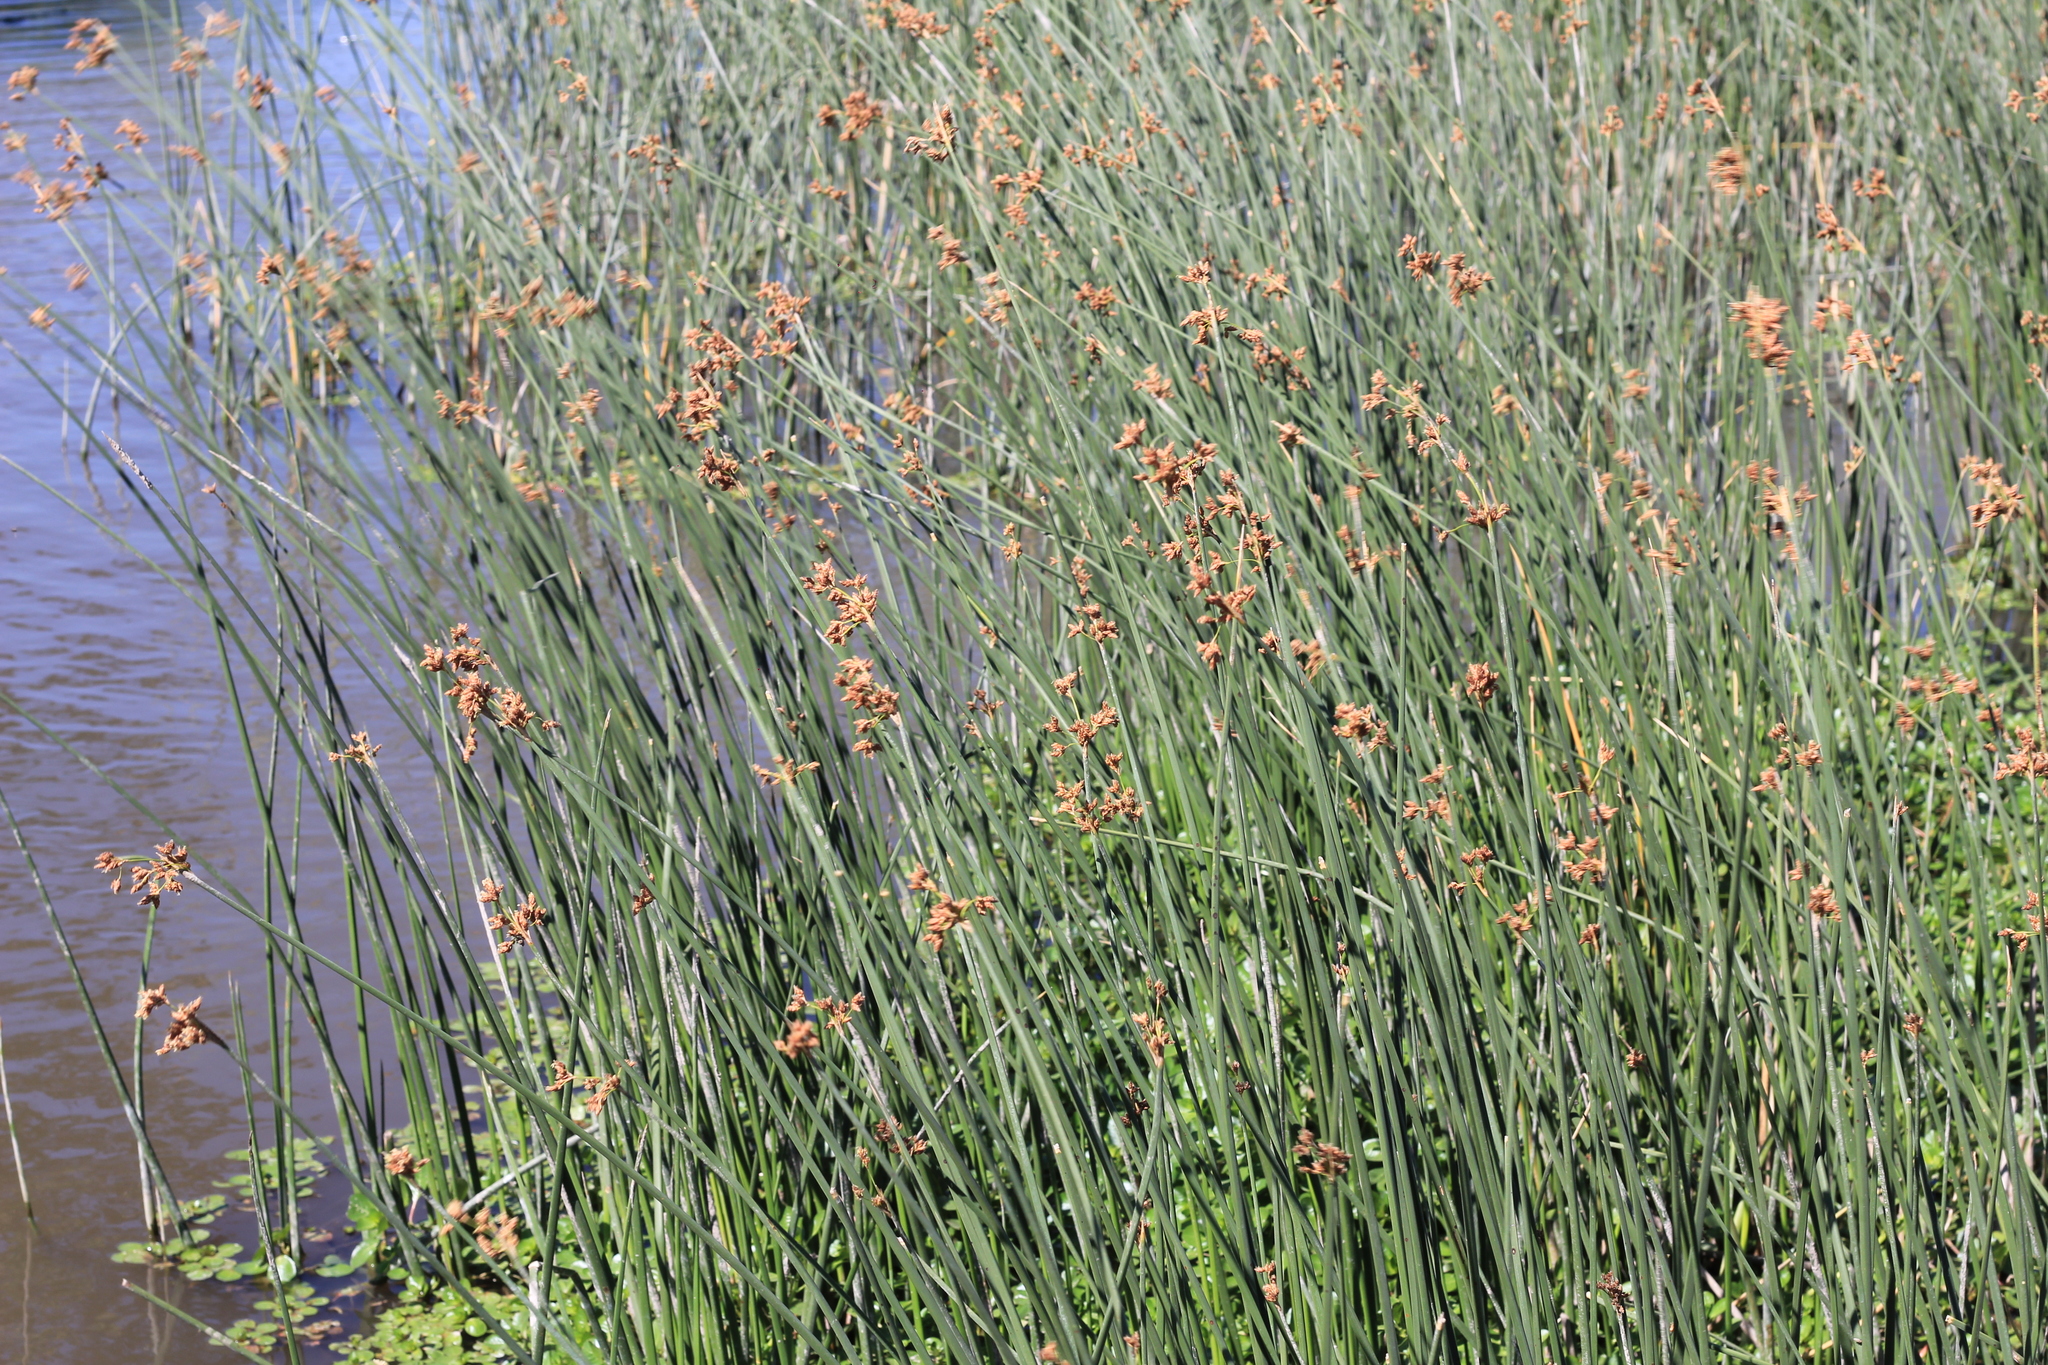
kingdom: Plantae
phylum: Tracheophyta
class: Liliopsida
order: Poales
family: Cyperaceae
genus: Schoenoplectus
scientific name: Schoenoplectus californicus
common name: California bulrush
